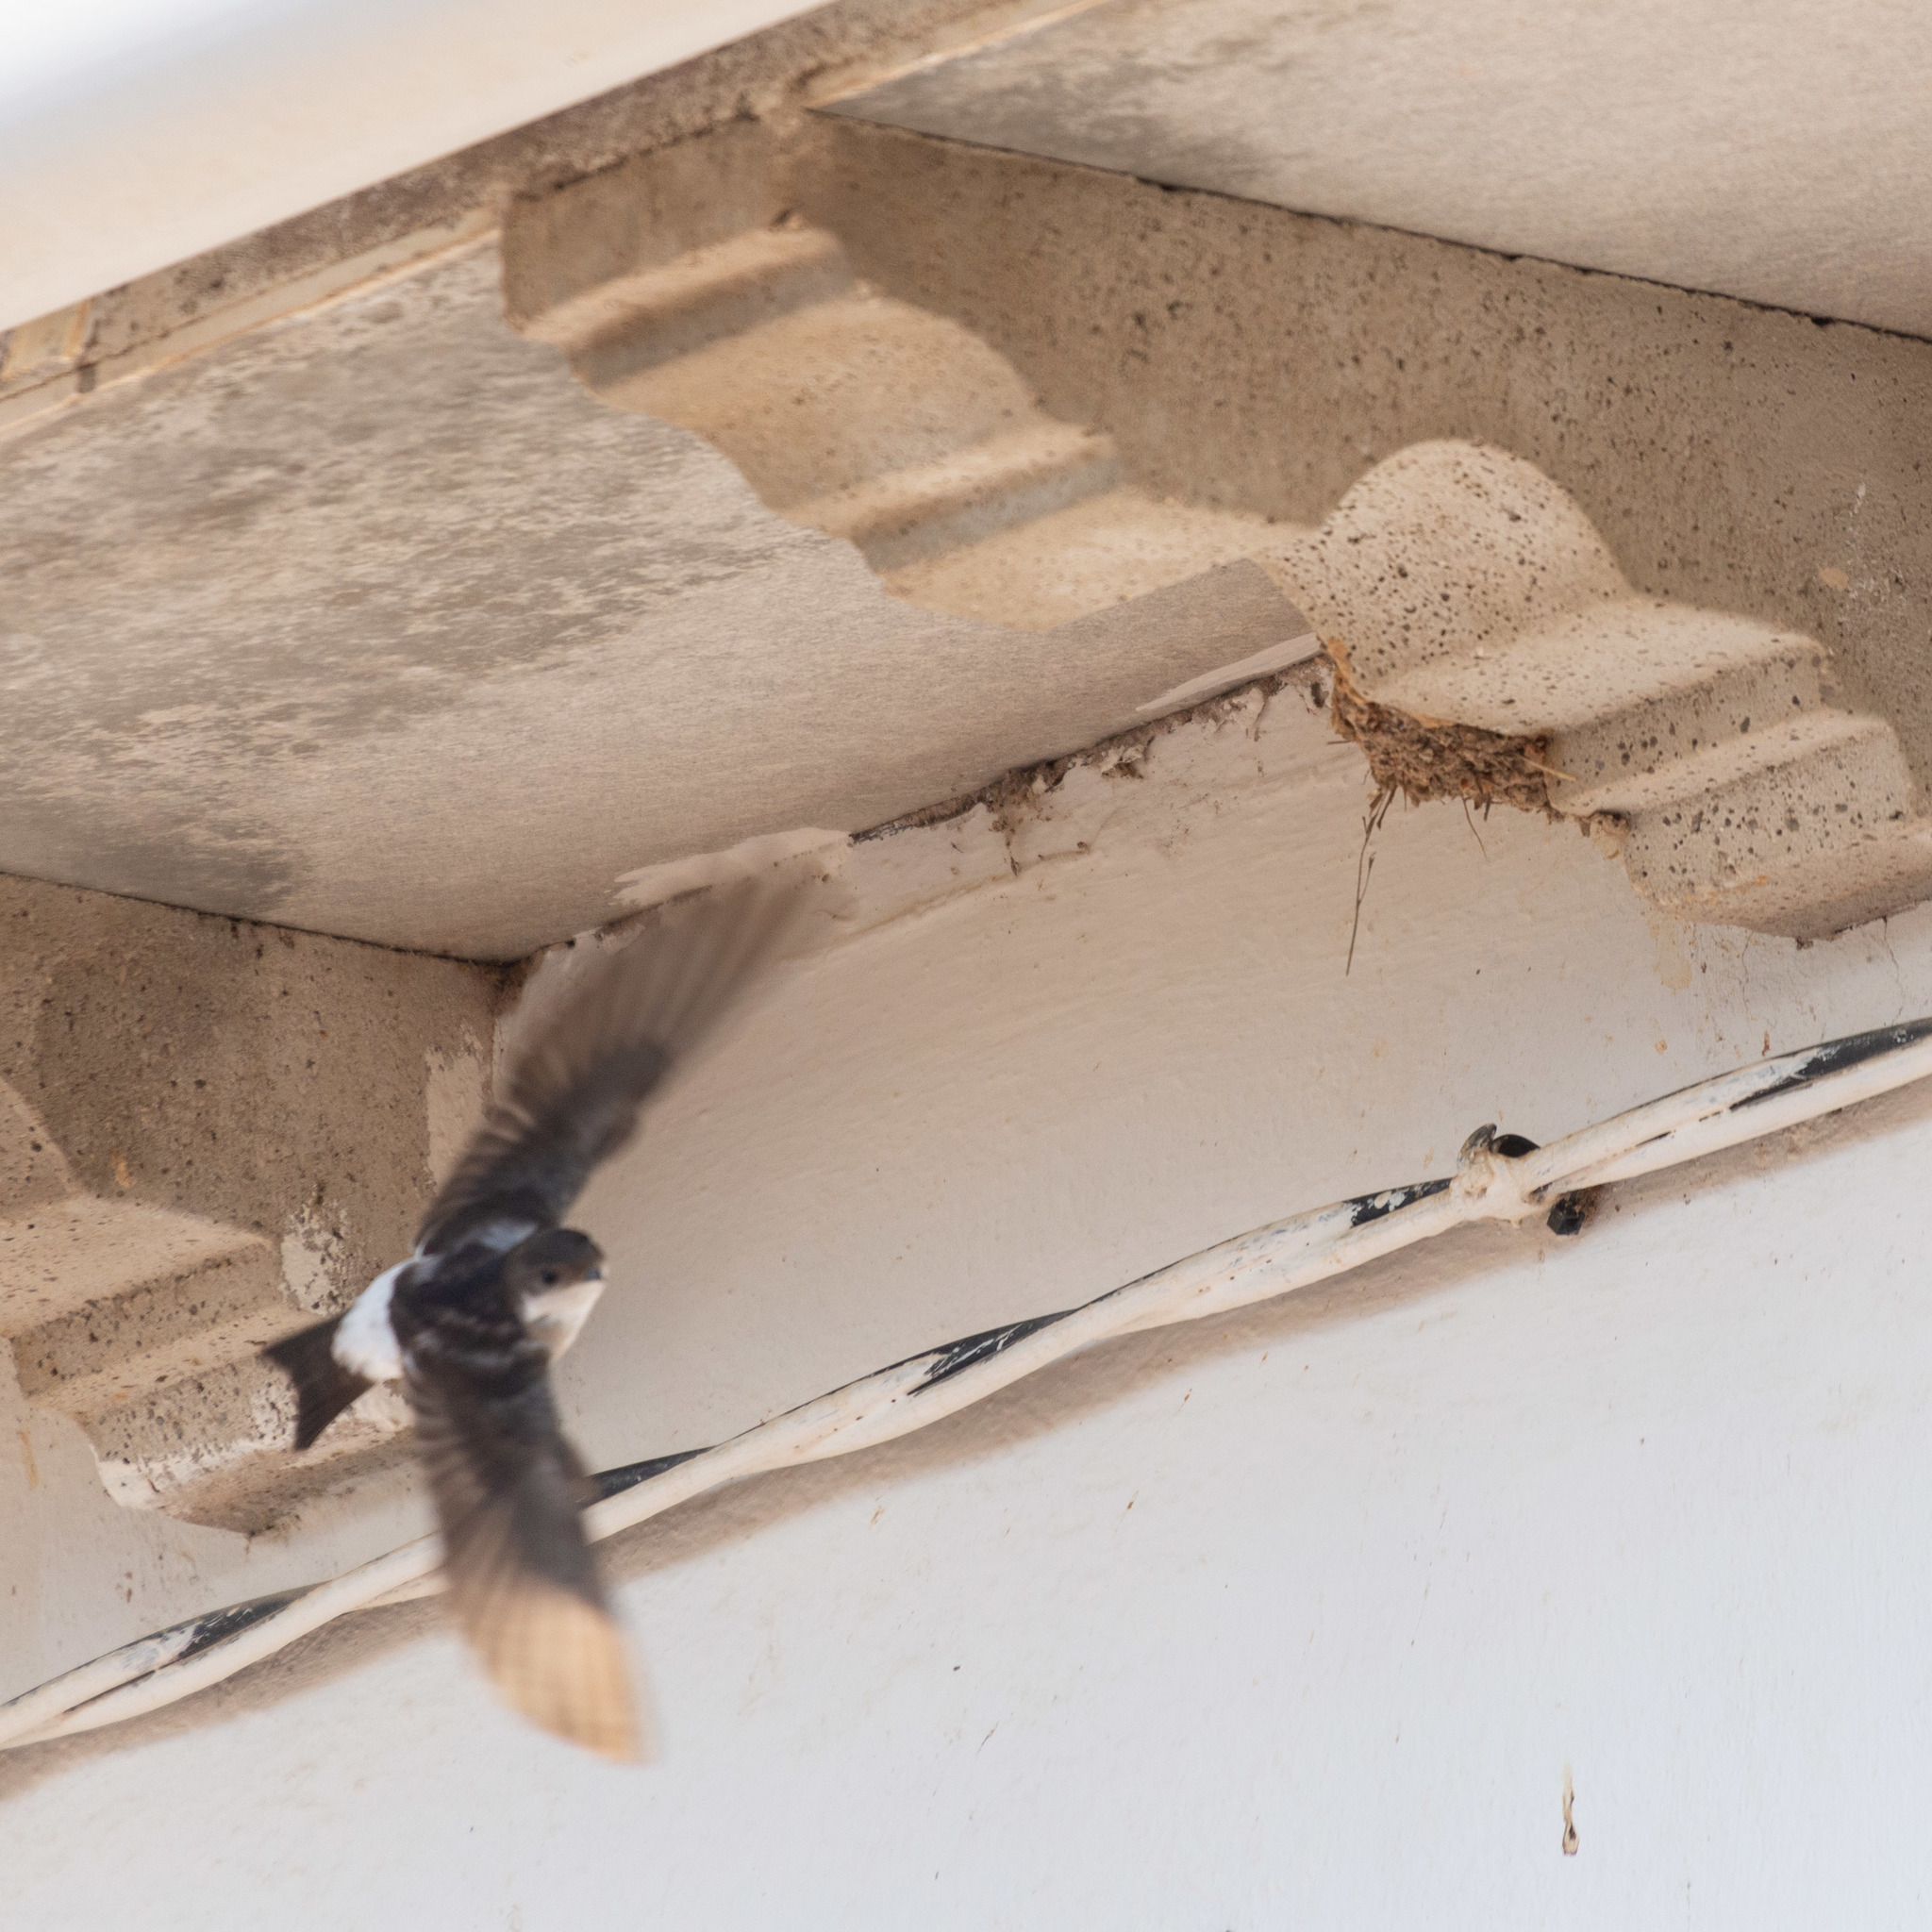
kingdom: Animalia
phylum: Chordata
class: Aves
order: Passeriformes
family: Hirundinidae
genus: Delichon
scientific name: Delichon urbicum
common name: Common house martin
